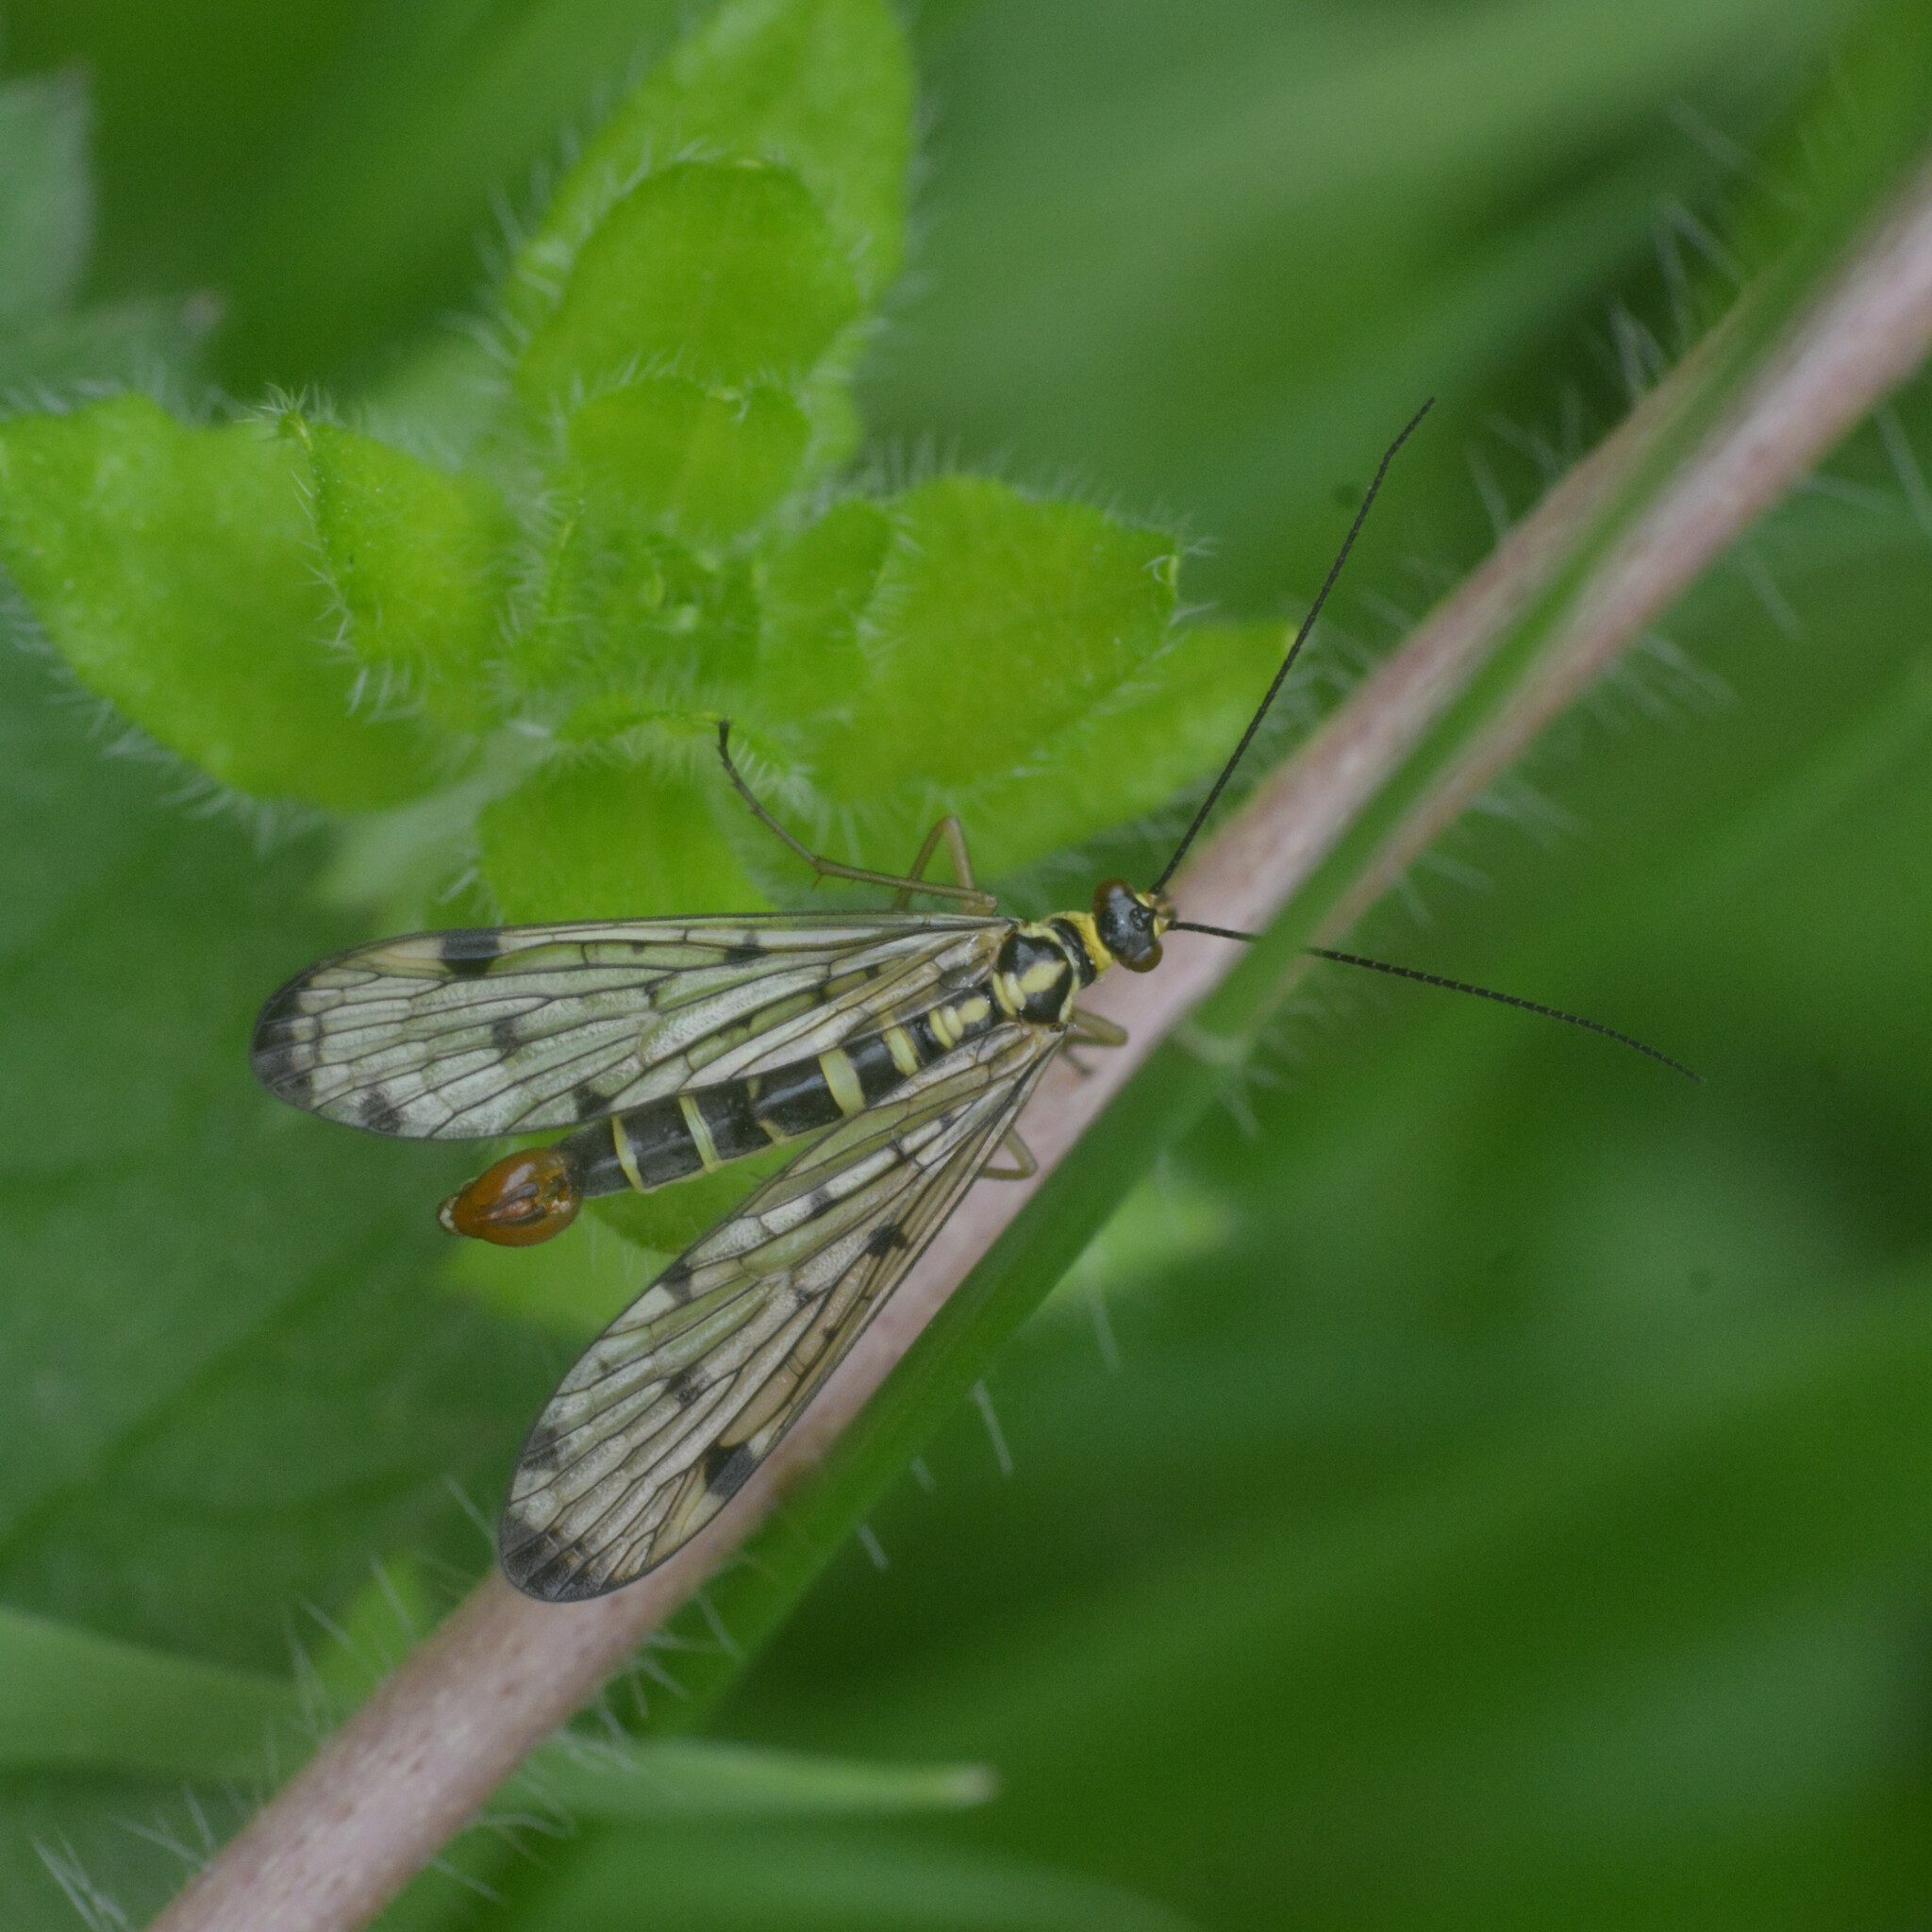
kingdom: Animalia
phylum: Arthropoda
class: Insecta
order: Mecoptera
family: Panorpidae
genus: Panorpa
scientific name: Panorpa germanica
